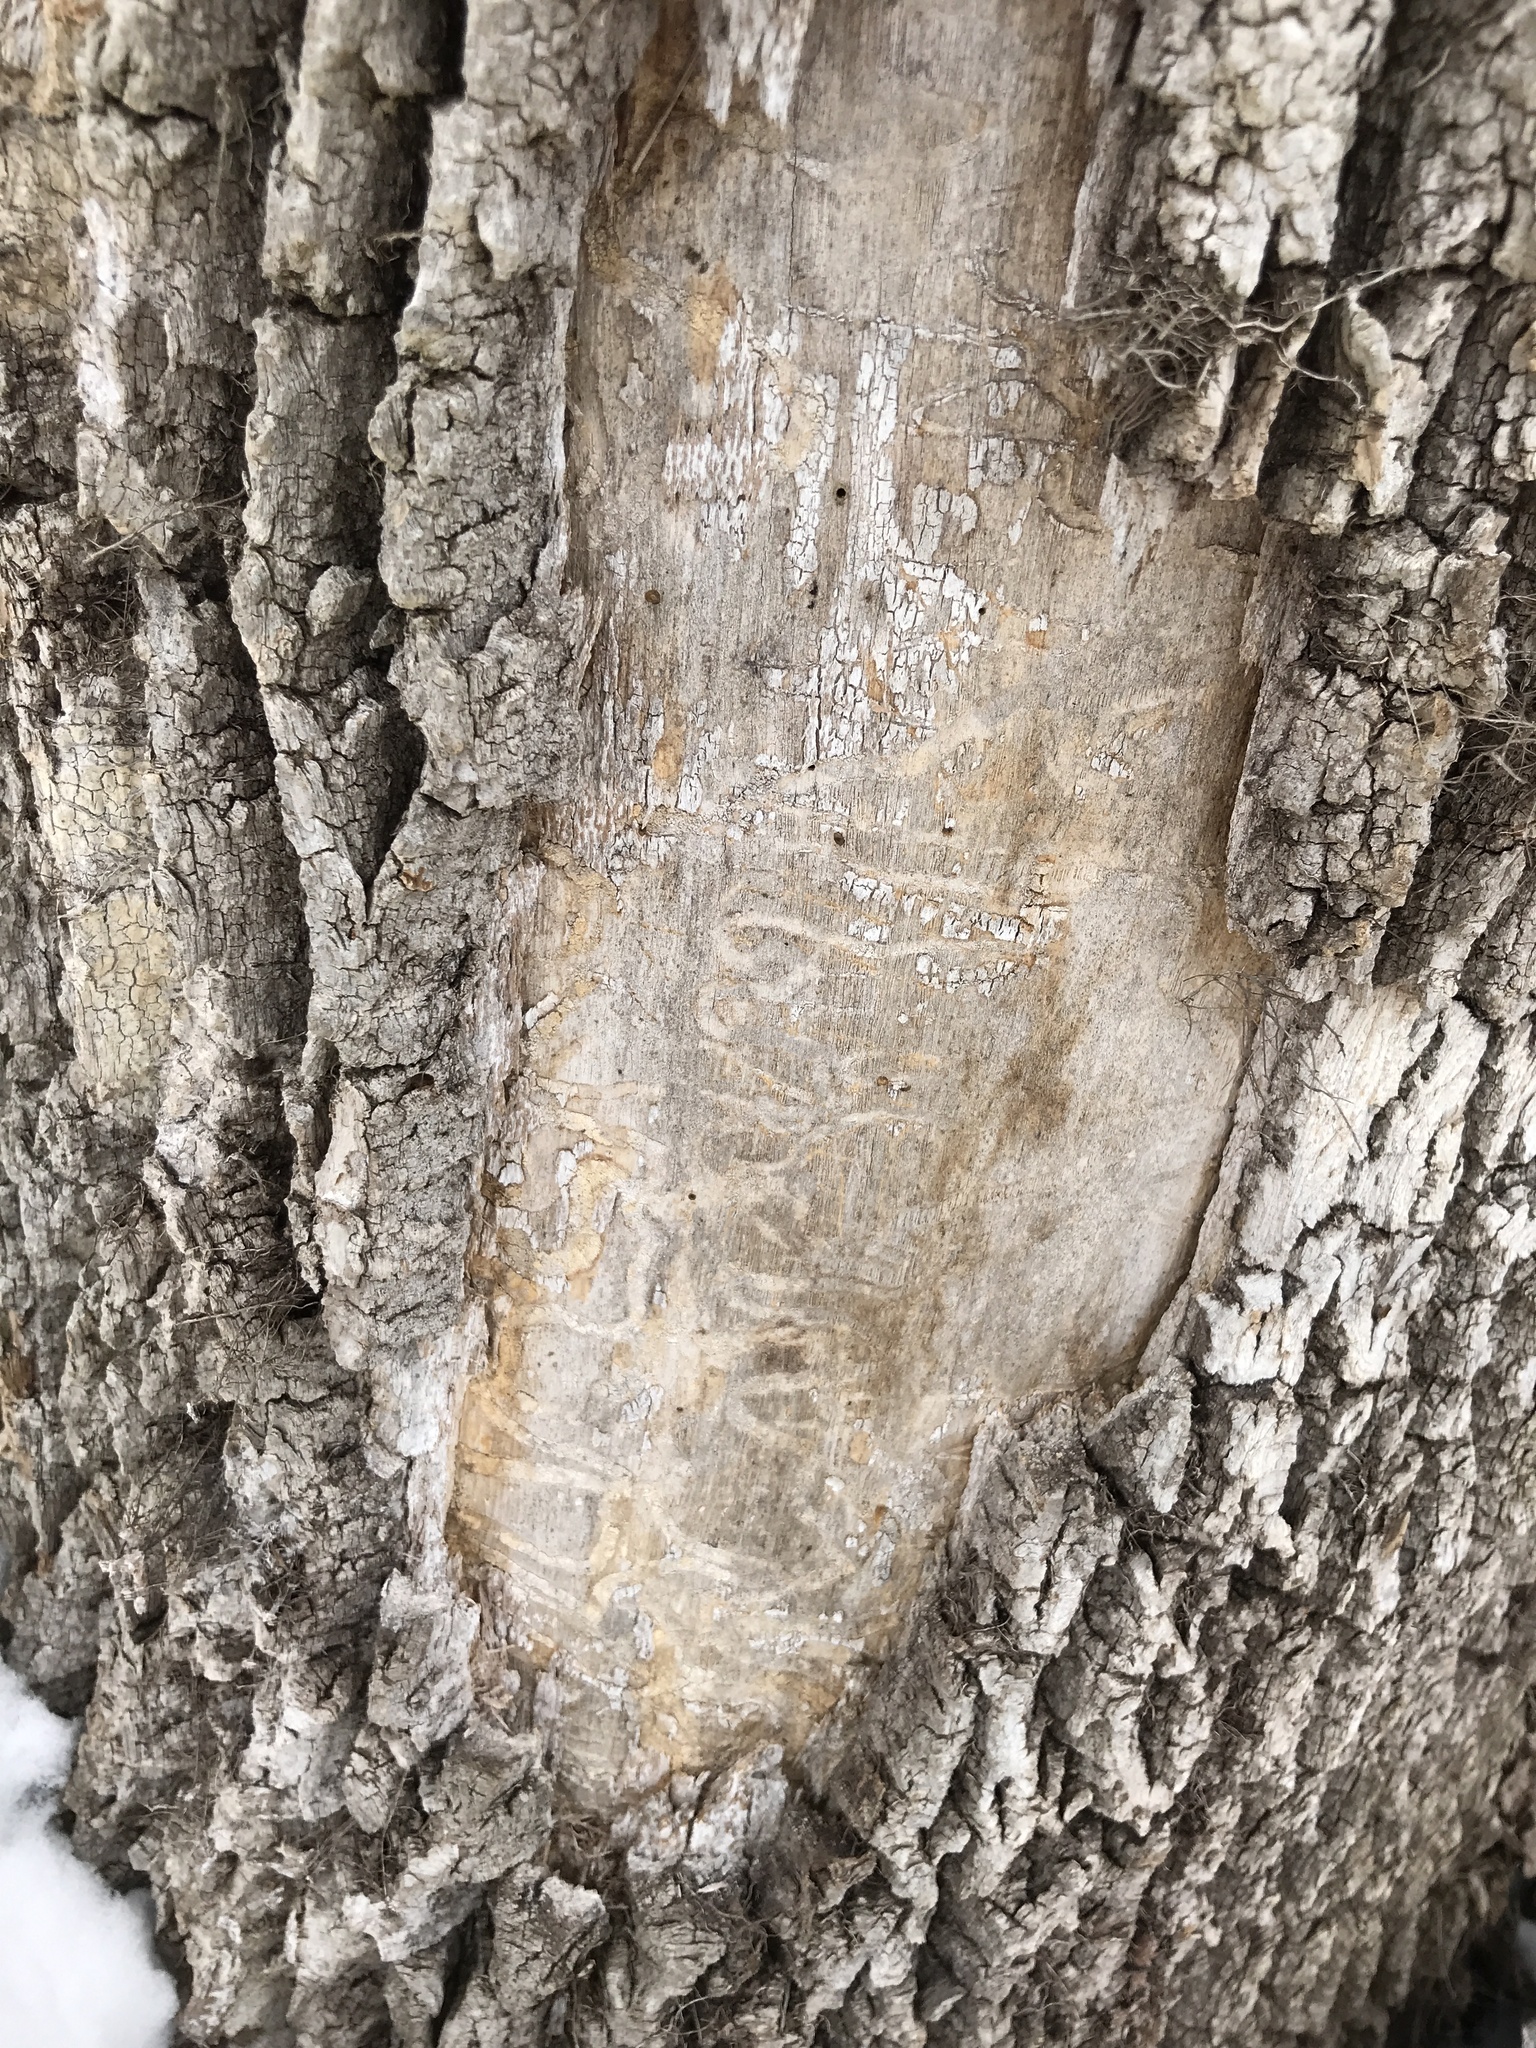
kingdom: Animalia
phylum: Arthropoda
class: Insecta
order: Coleoptera
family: Buprestidae
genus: Agrilus
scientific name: Agrilus planipennis
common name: Emerald ash borer
